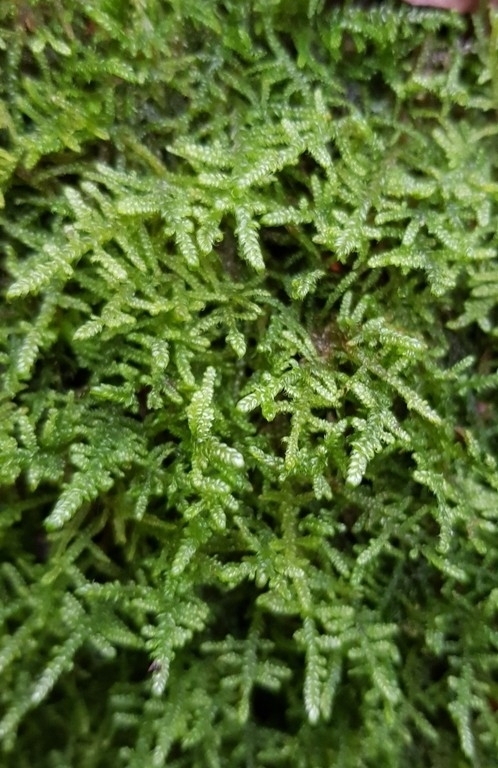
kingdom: Plantae
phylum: Bryophyta
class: Bryopsida
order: Hypnales
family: Hypnaceae
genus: Hypnum
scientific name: Hypnum cupressiforme
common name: Cypress-leaved plait-moss
